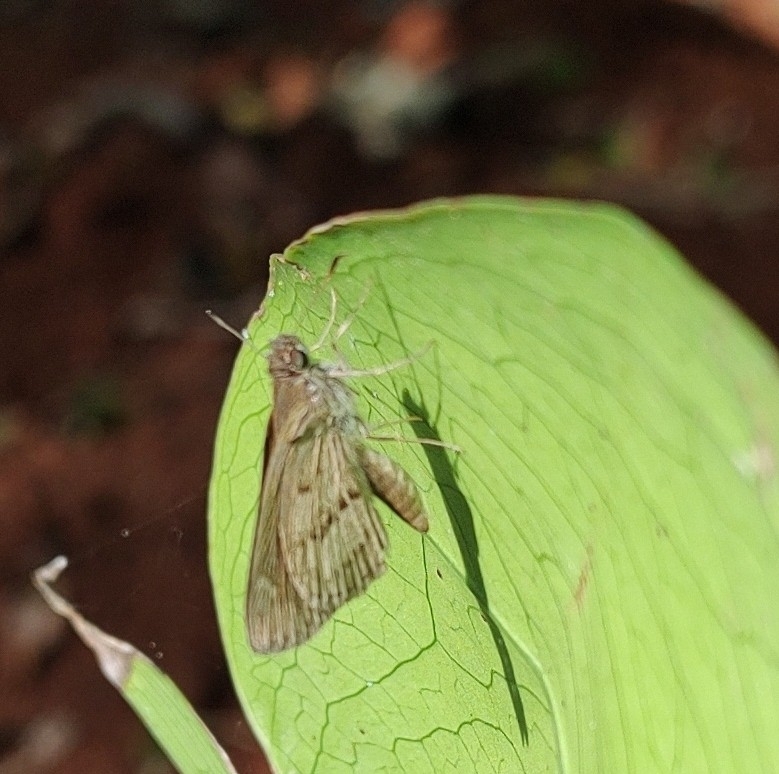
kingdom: Animalia
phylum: Arthropoda
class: Insecta
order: Lepidoptera
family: Hesperiidae
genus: Cymaenes
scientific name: Cymaenes gisca
